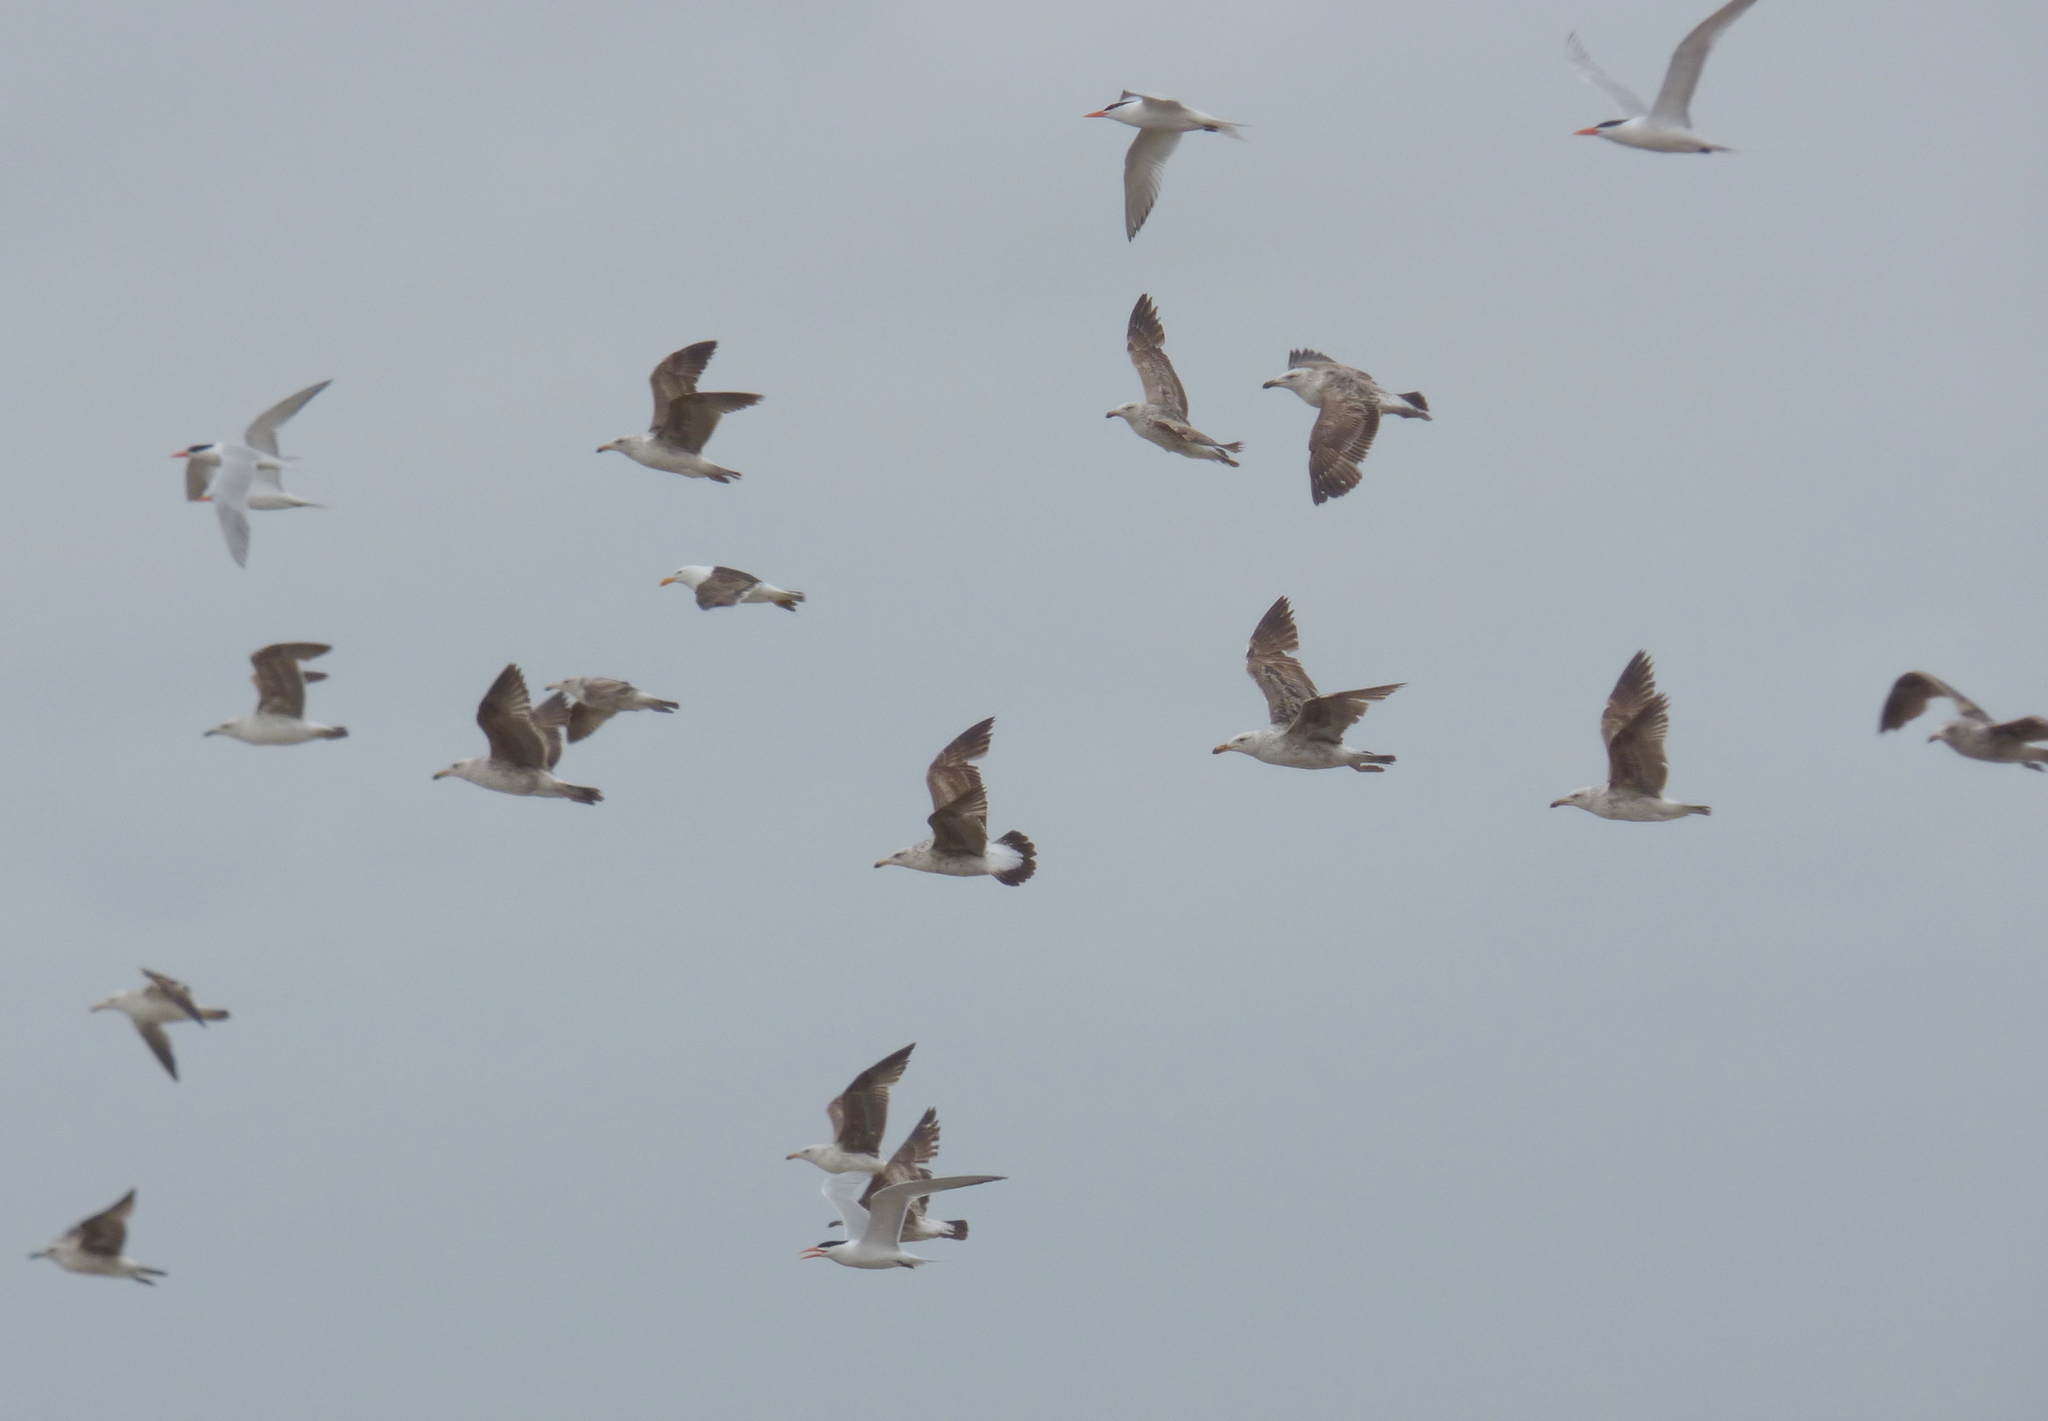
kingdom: Animalia
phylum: Chordata
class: Aves
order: Charadriiformes
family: Laridae
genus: Larus
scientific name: Larus dominicanus
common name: Kelp gull
